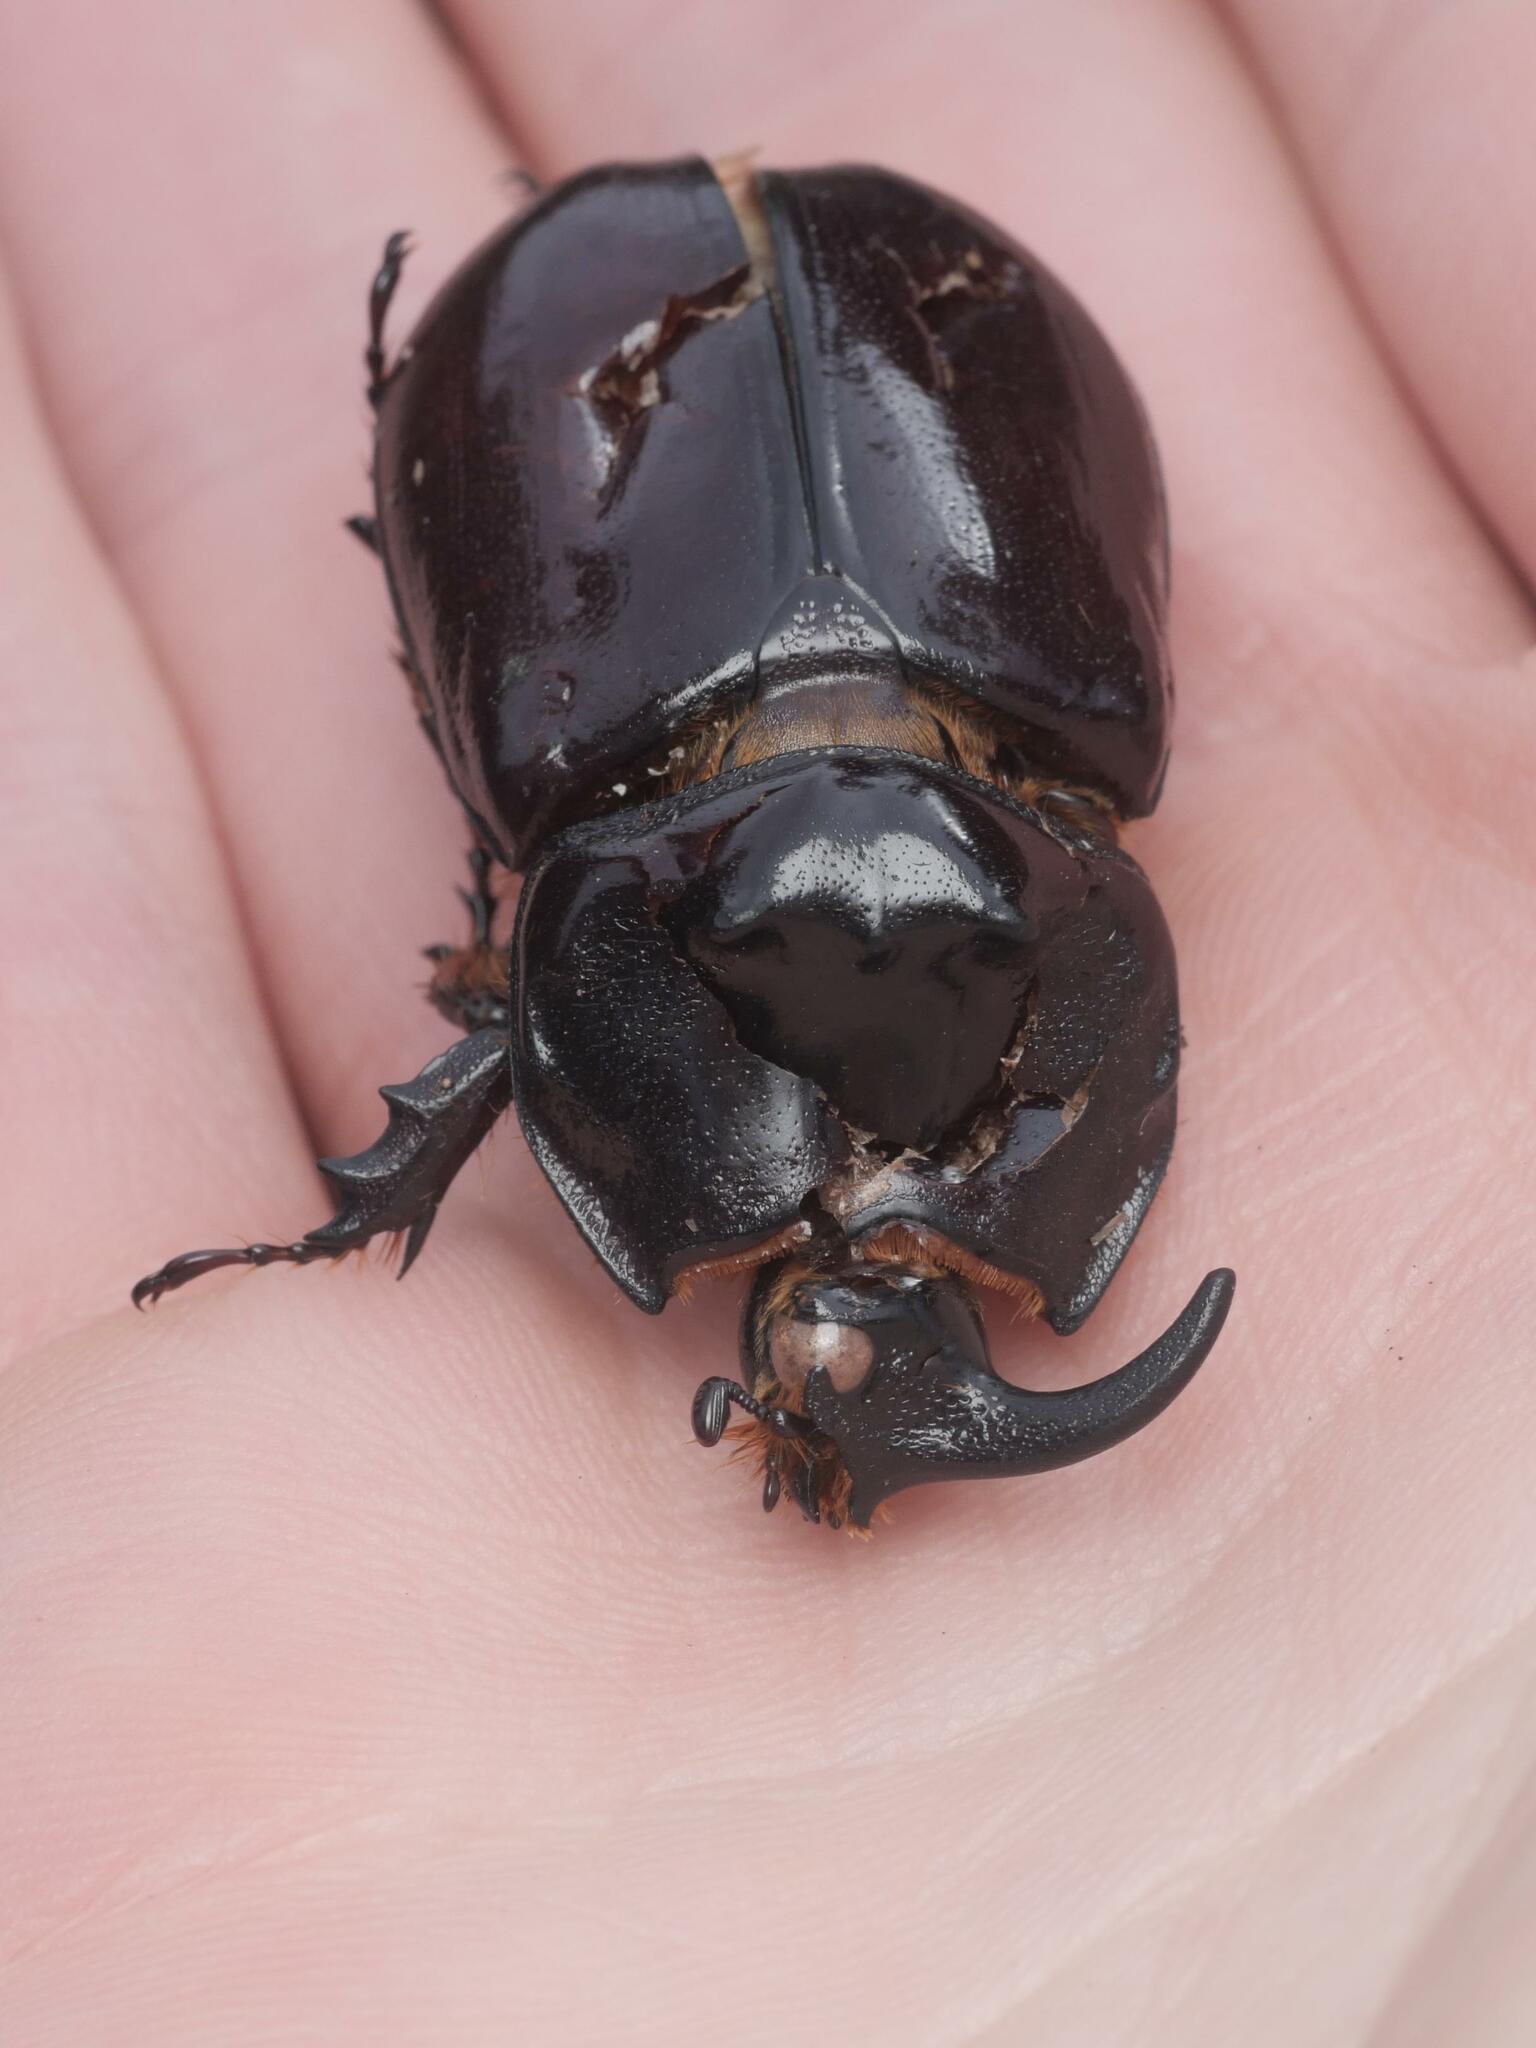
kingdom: Animalia
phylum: Arthropoda
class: Insecta
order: Coleoptera
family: Scarabaeidae
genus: Oryctes
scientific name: Oryctes nasicornis
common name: European rhinoceros beetle
